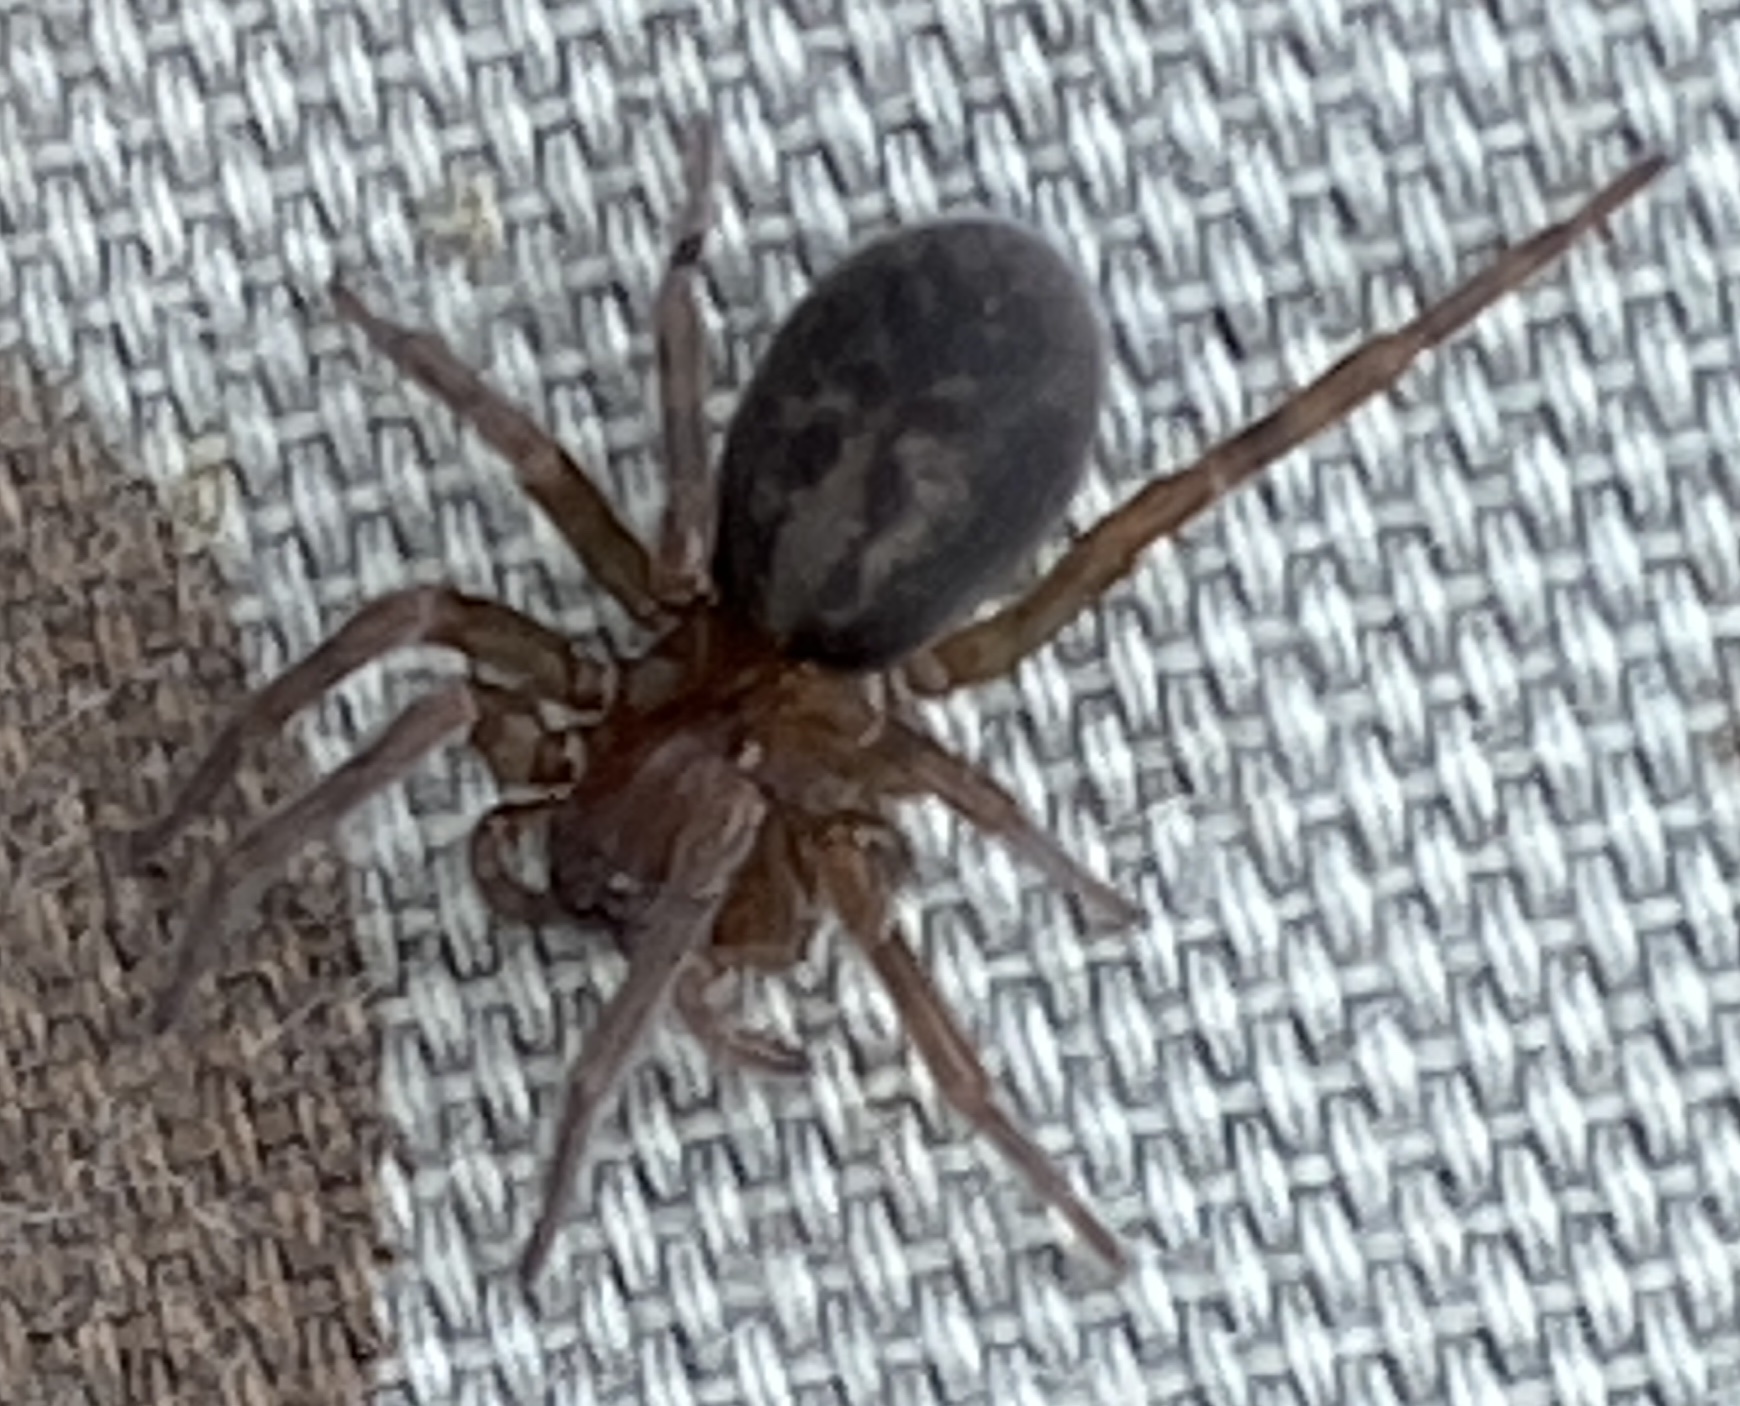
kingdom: Animalia
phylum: Arthropoda
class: Arachnida
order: Araneae
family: Amaurobiidae
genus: Amaurobius
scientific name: Amaurobius ferox
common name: Black laceweaver
